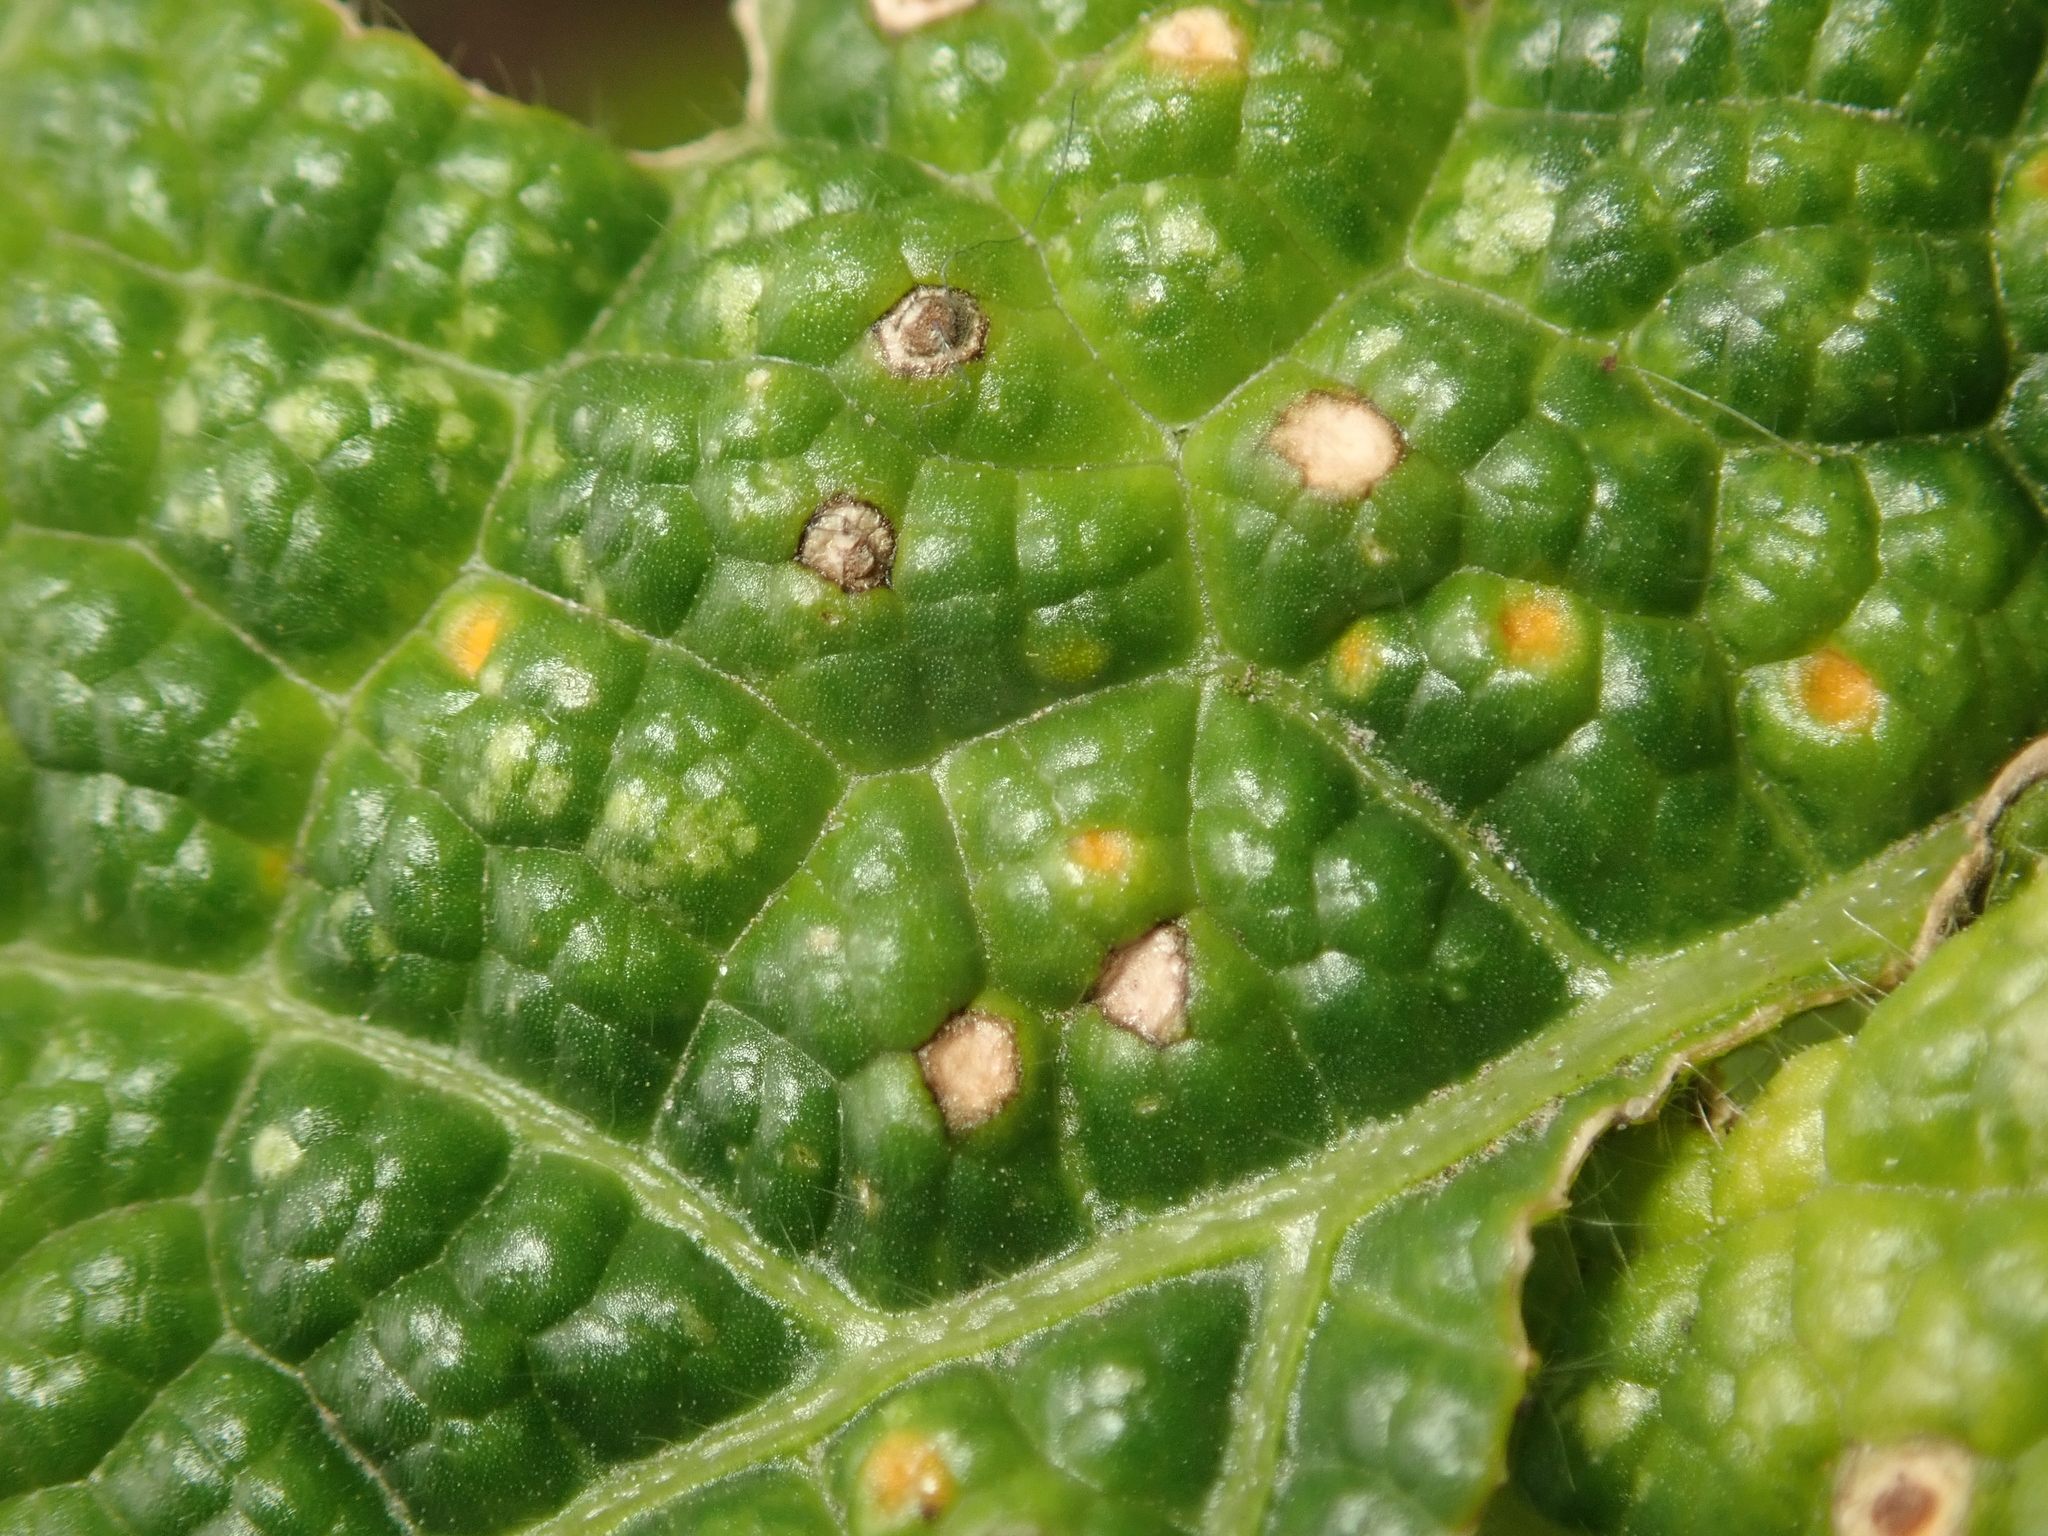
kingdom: Fungi
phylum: Basidiomycota
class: Pucciniomycetes
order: Pucciniales
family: Pucciniaceae
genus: Puccinia
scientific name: Puccinia malvacearum
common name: Hollyhock rust
